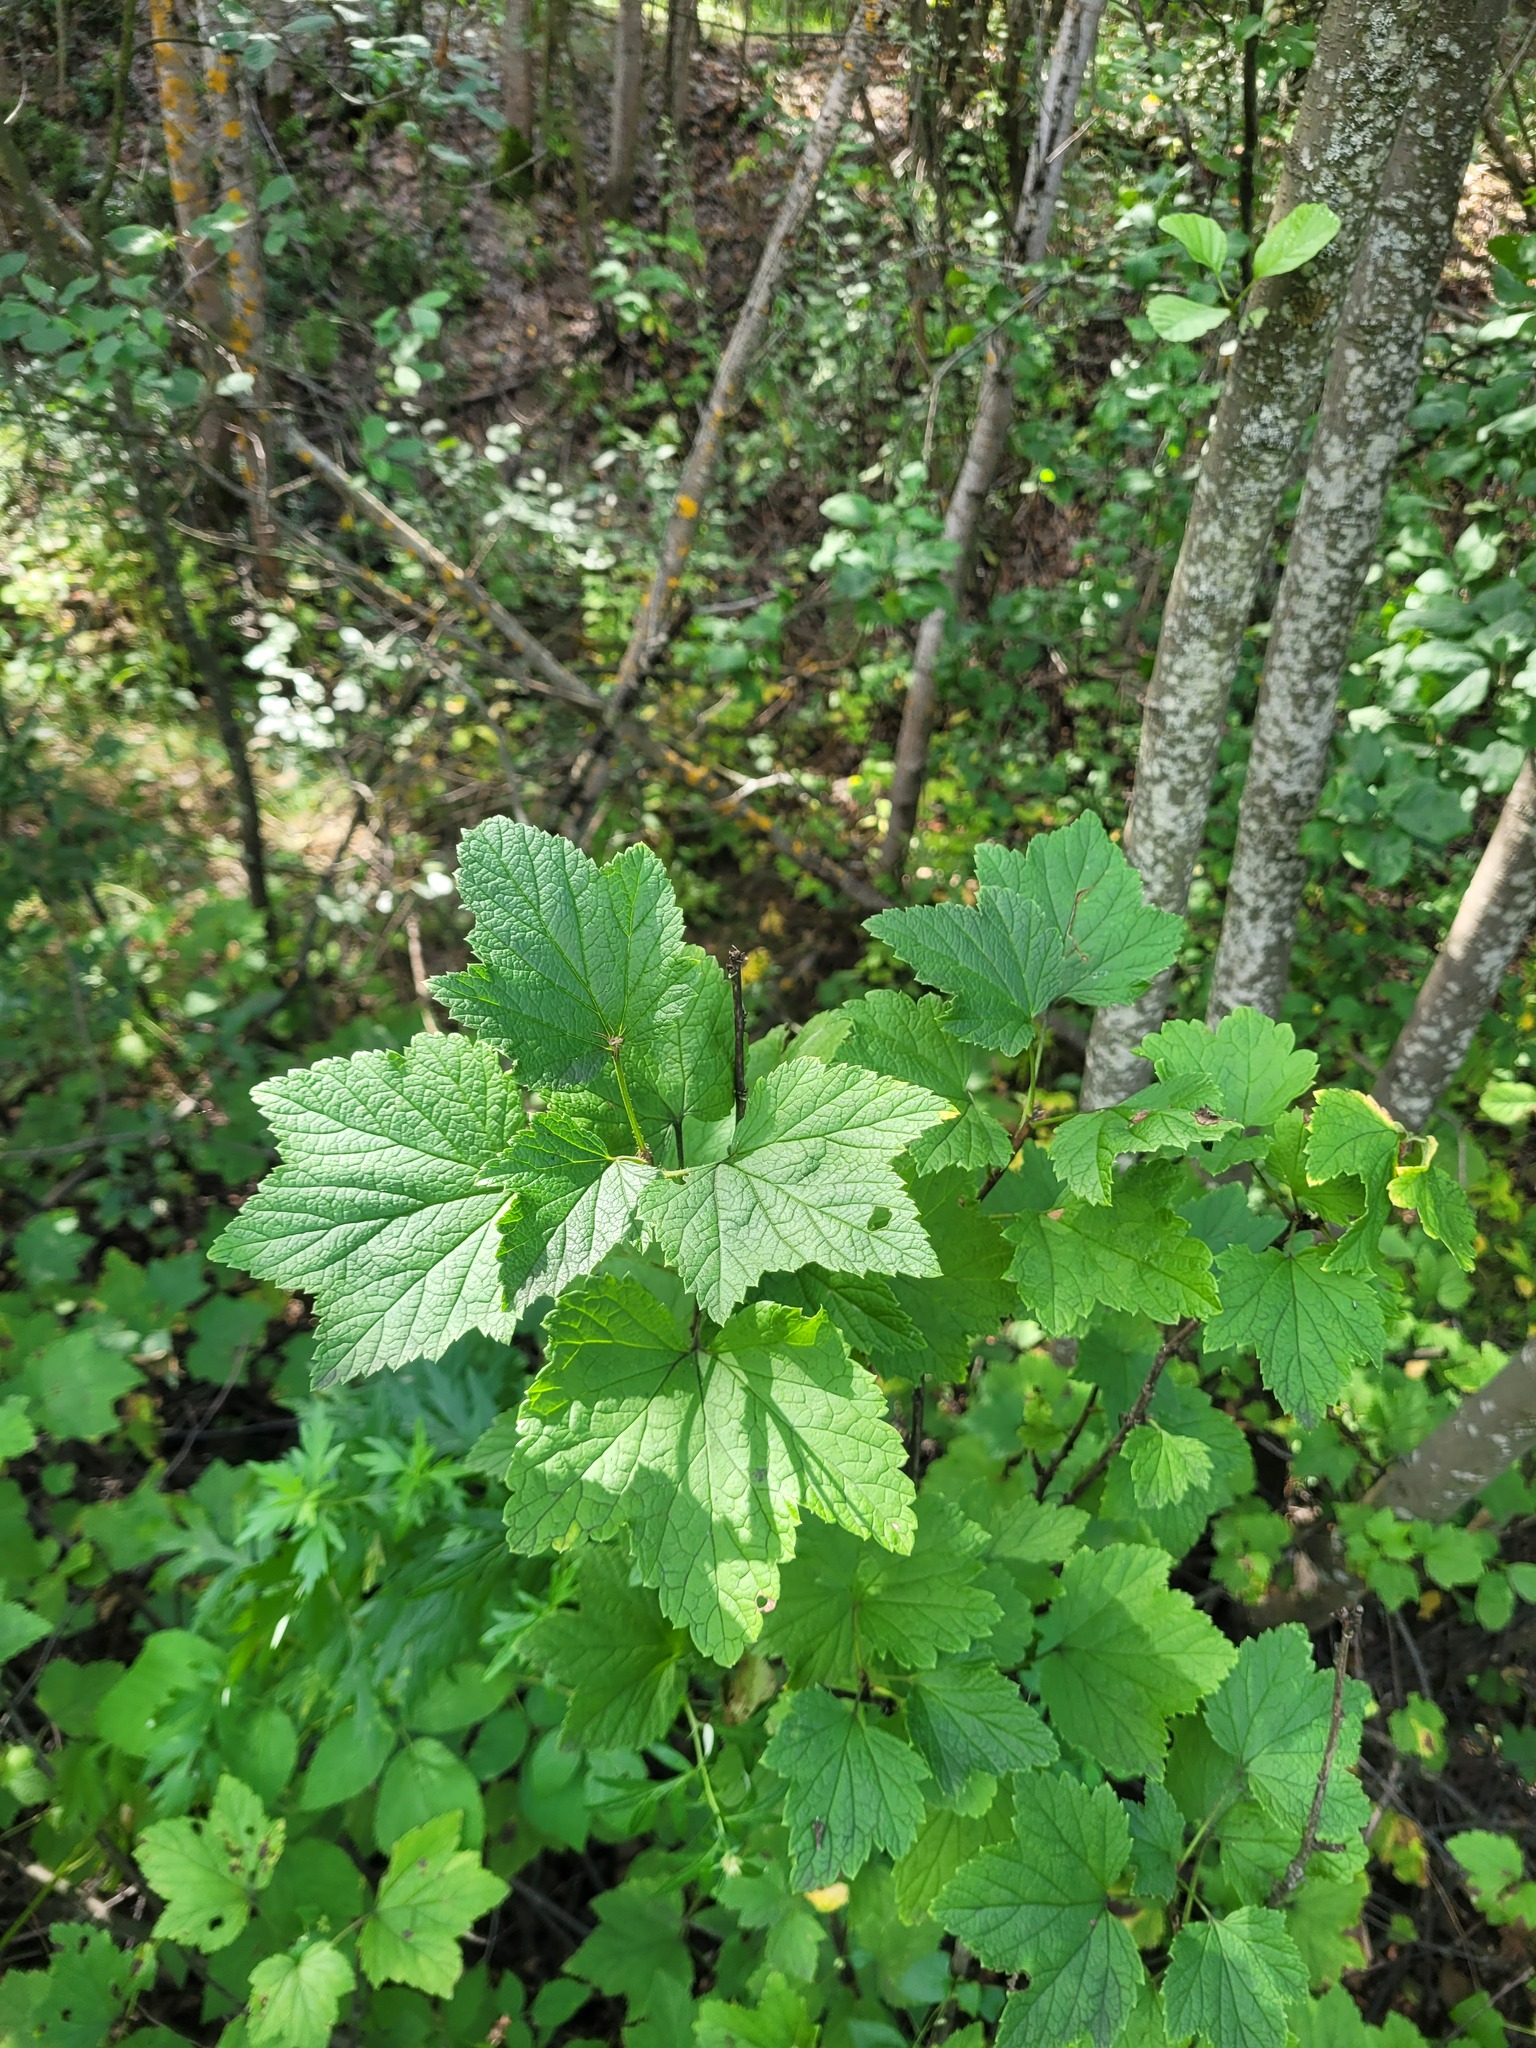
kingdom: Plantae
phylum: Tracheophyta
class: Magnoliopsida
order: Saxifragales
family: Grossulariaceae
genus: Ribes
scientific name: Ribes spicatum
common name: Downy currant
